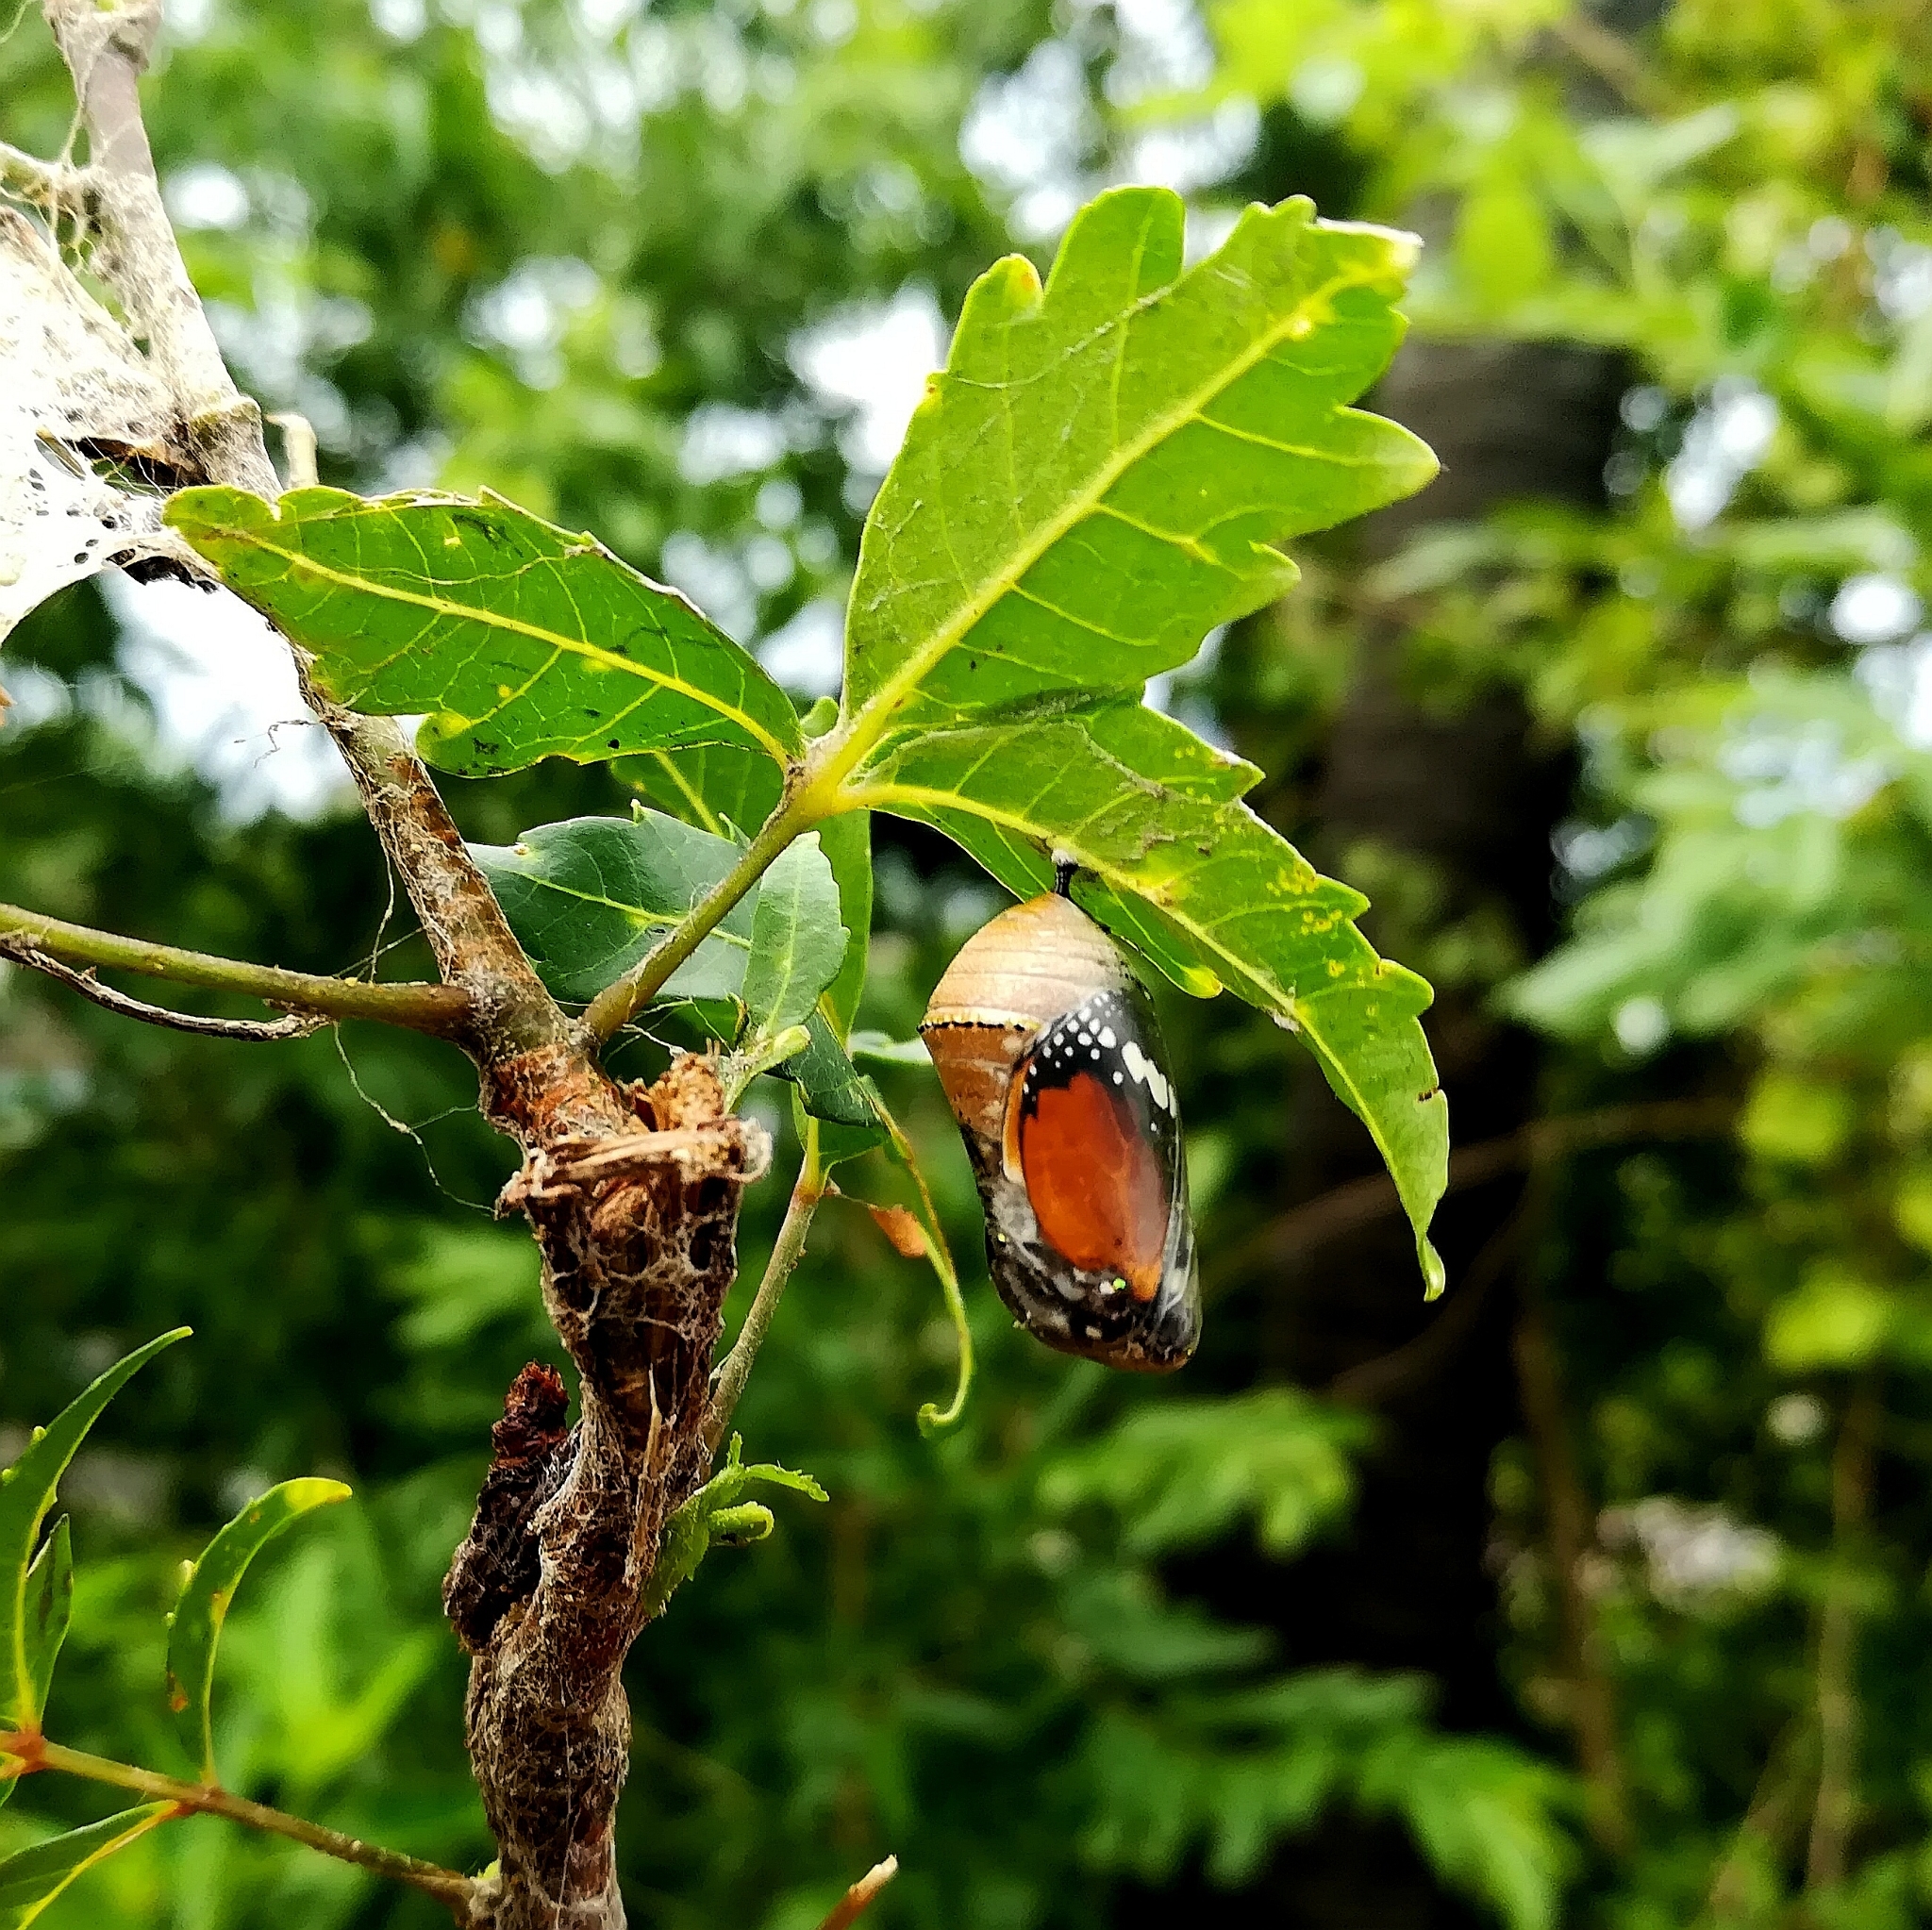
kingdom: Animalia
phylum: Arthropoda
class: Insecta
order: Lepidoptera
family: Nymphalidae
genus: Danaus
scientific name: Danaus chrysippus
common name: Plain tiger
